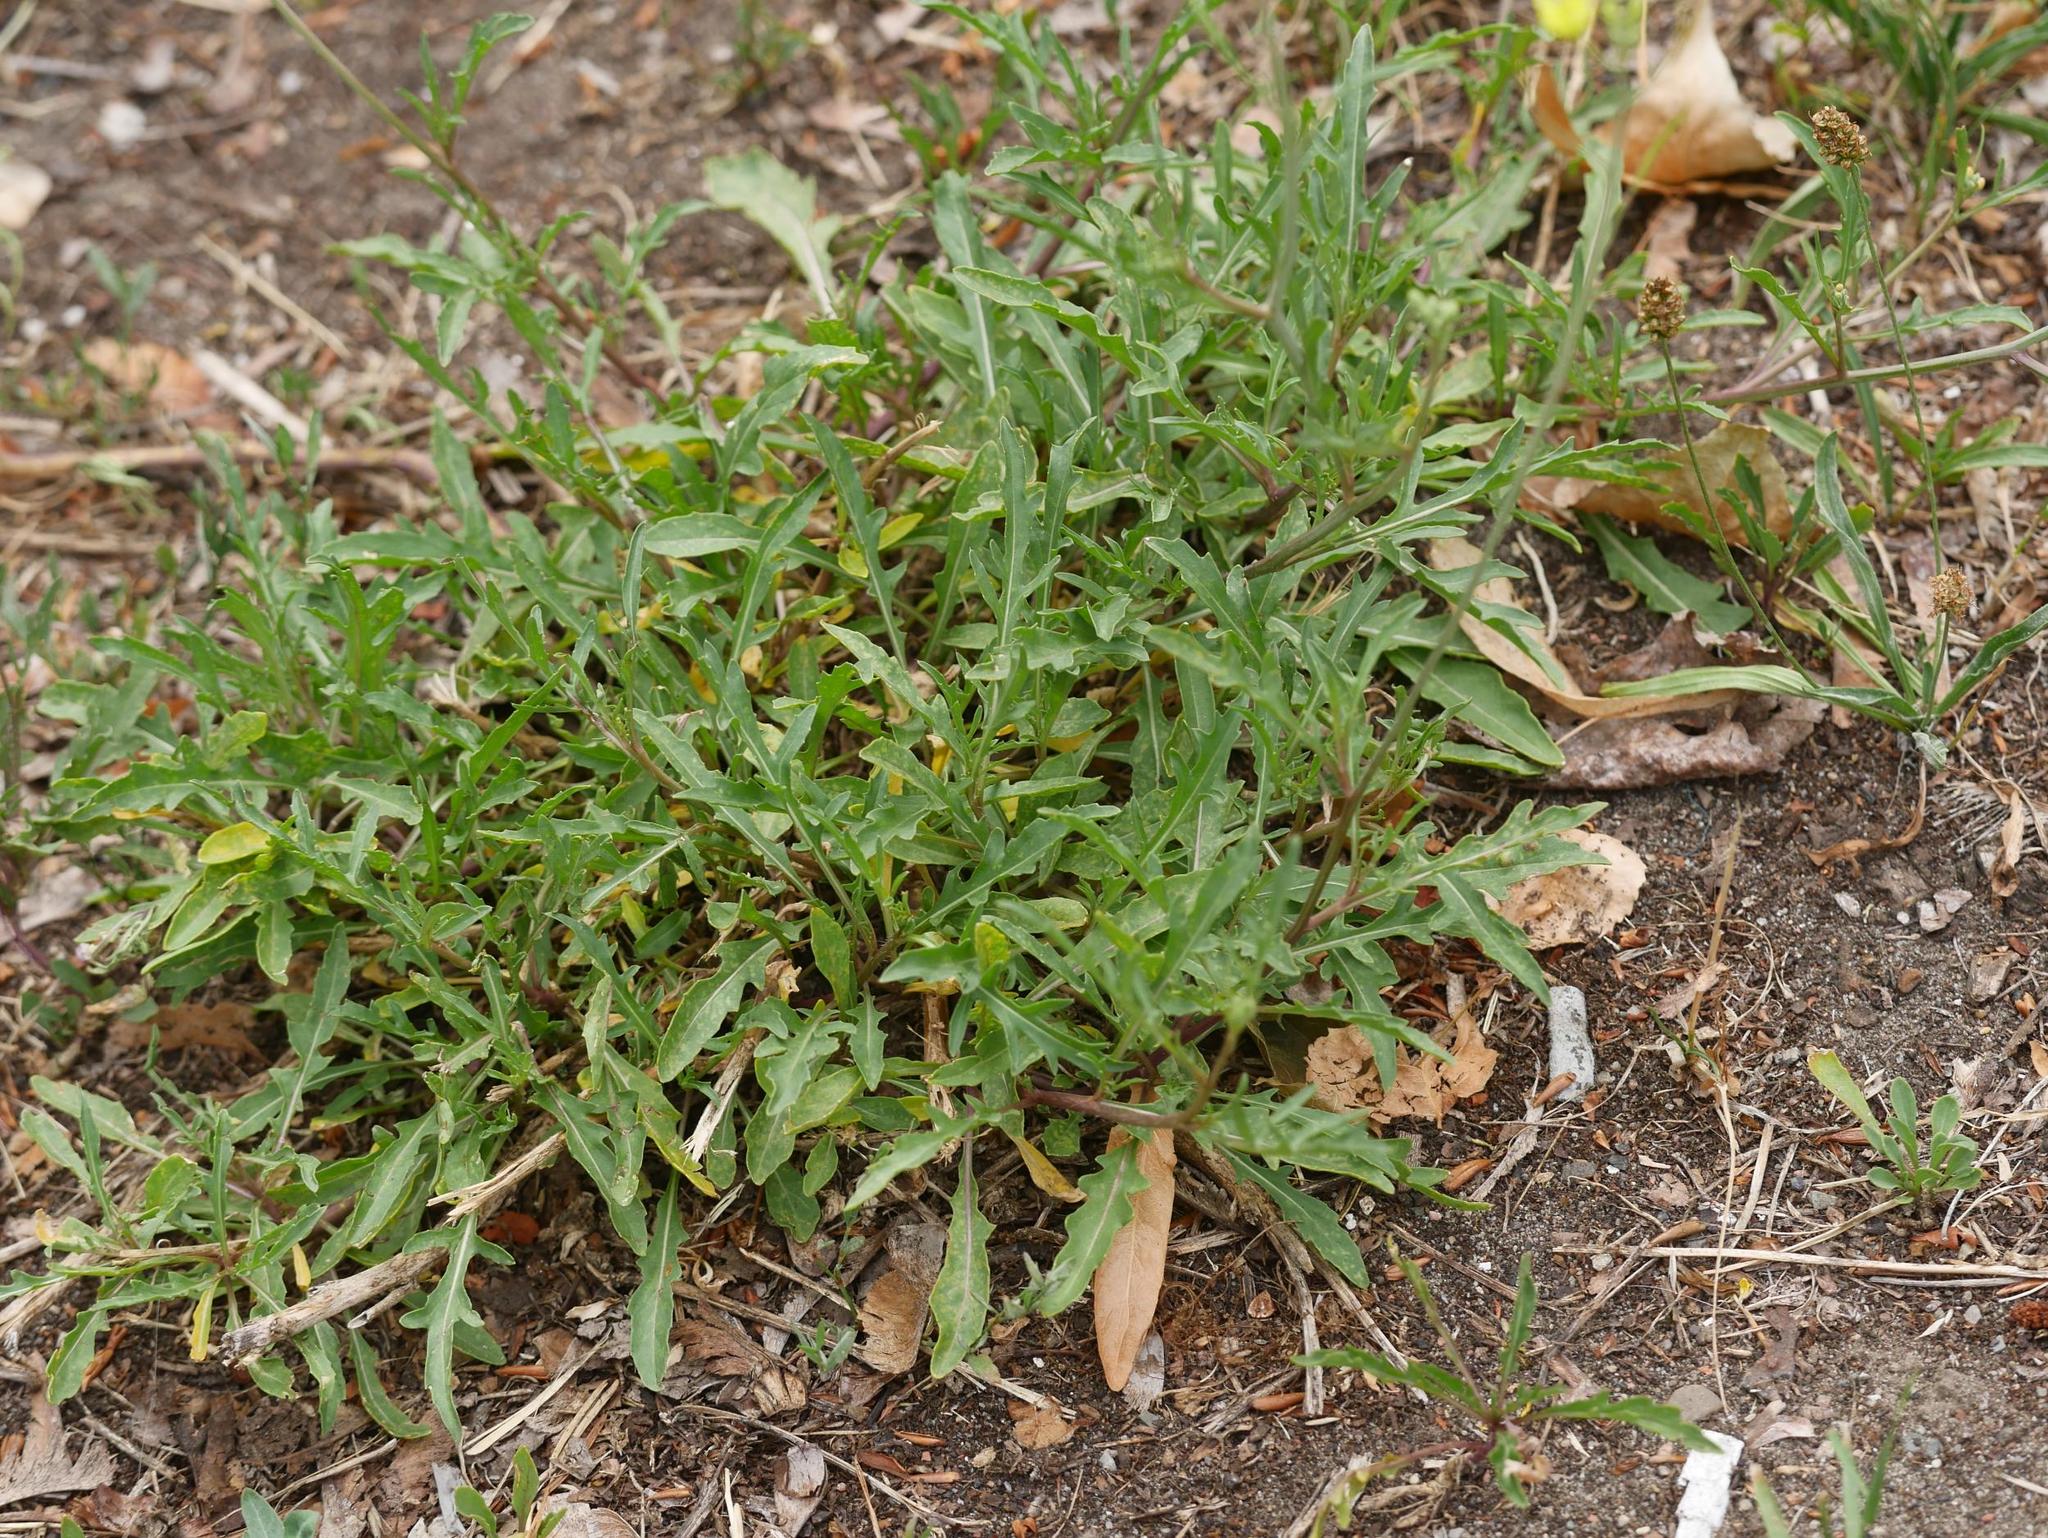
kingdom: Plantae
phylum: Tracheophyta
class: Magnoliopsida
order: Brassicales
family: Brassicaceae
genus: Diplotaxis
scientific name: Diplotaxis tenuifolia
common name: Perennial wall-rocket
